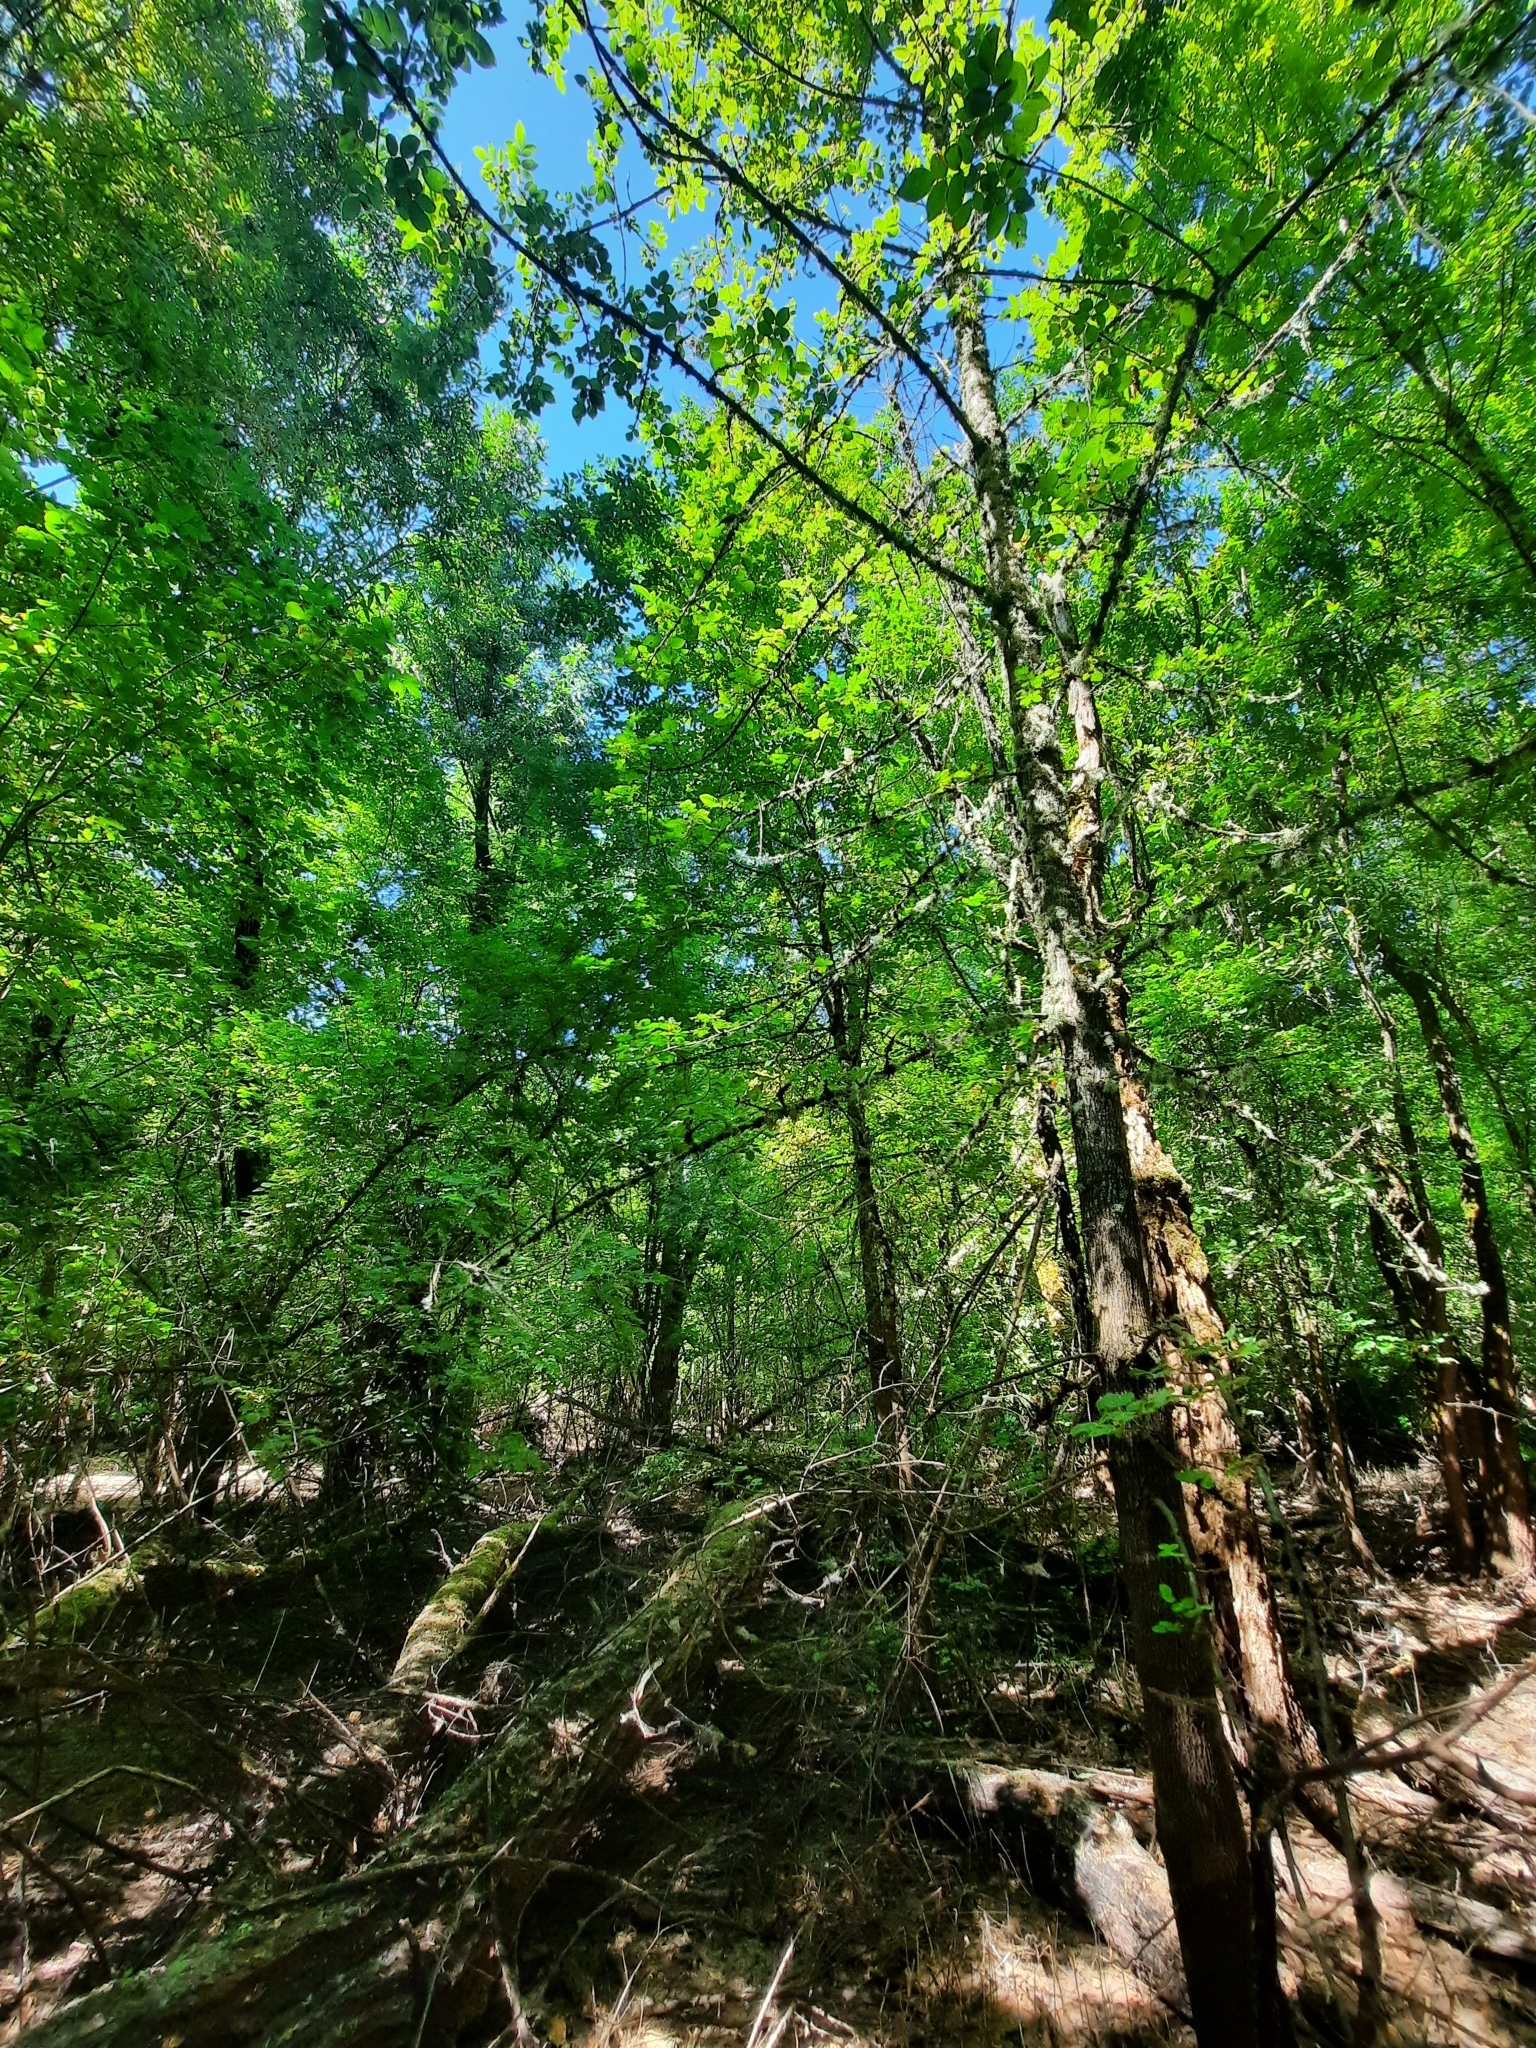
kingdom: Plantae
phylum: Tracheophyta
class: Magnoliopsida
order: Lamiales
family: Oleaceae
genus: Fraxinus
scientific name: Fraxinus latifolia
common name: Oregon ash
